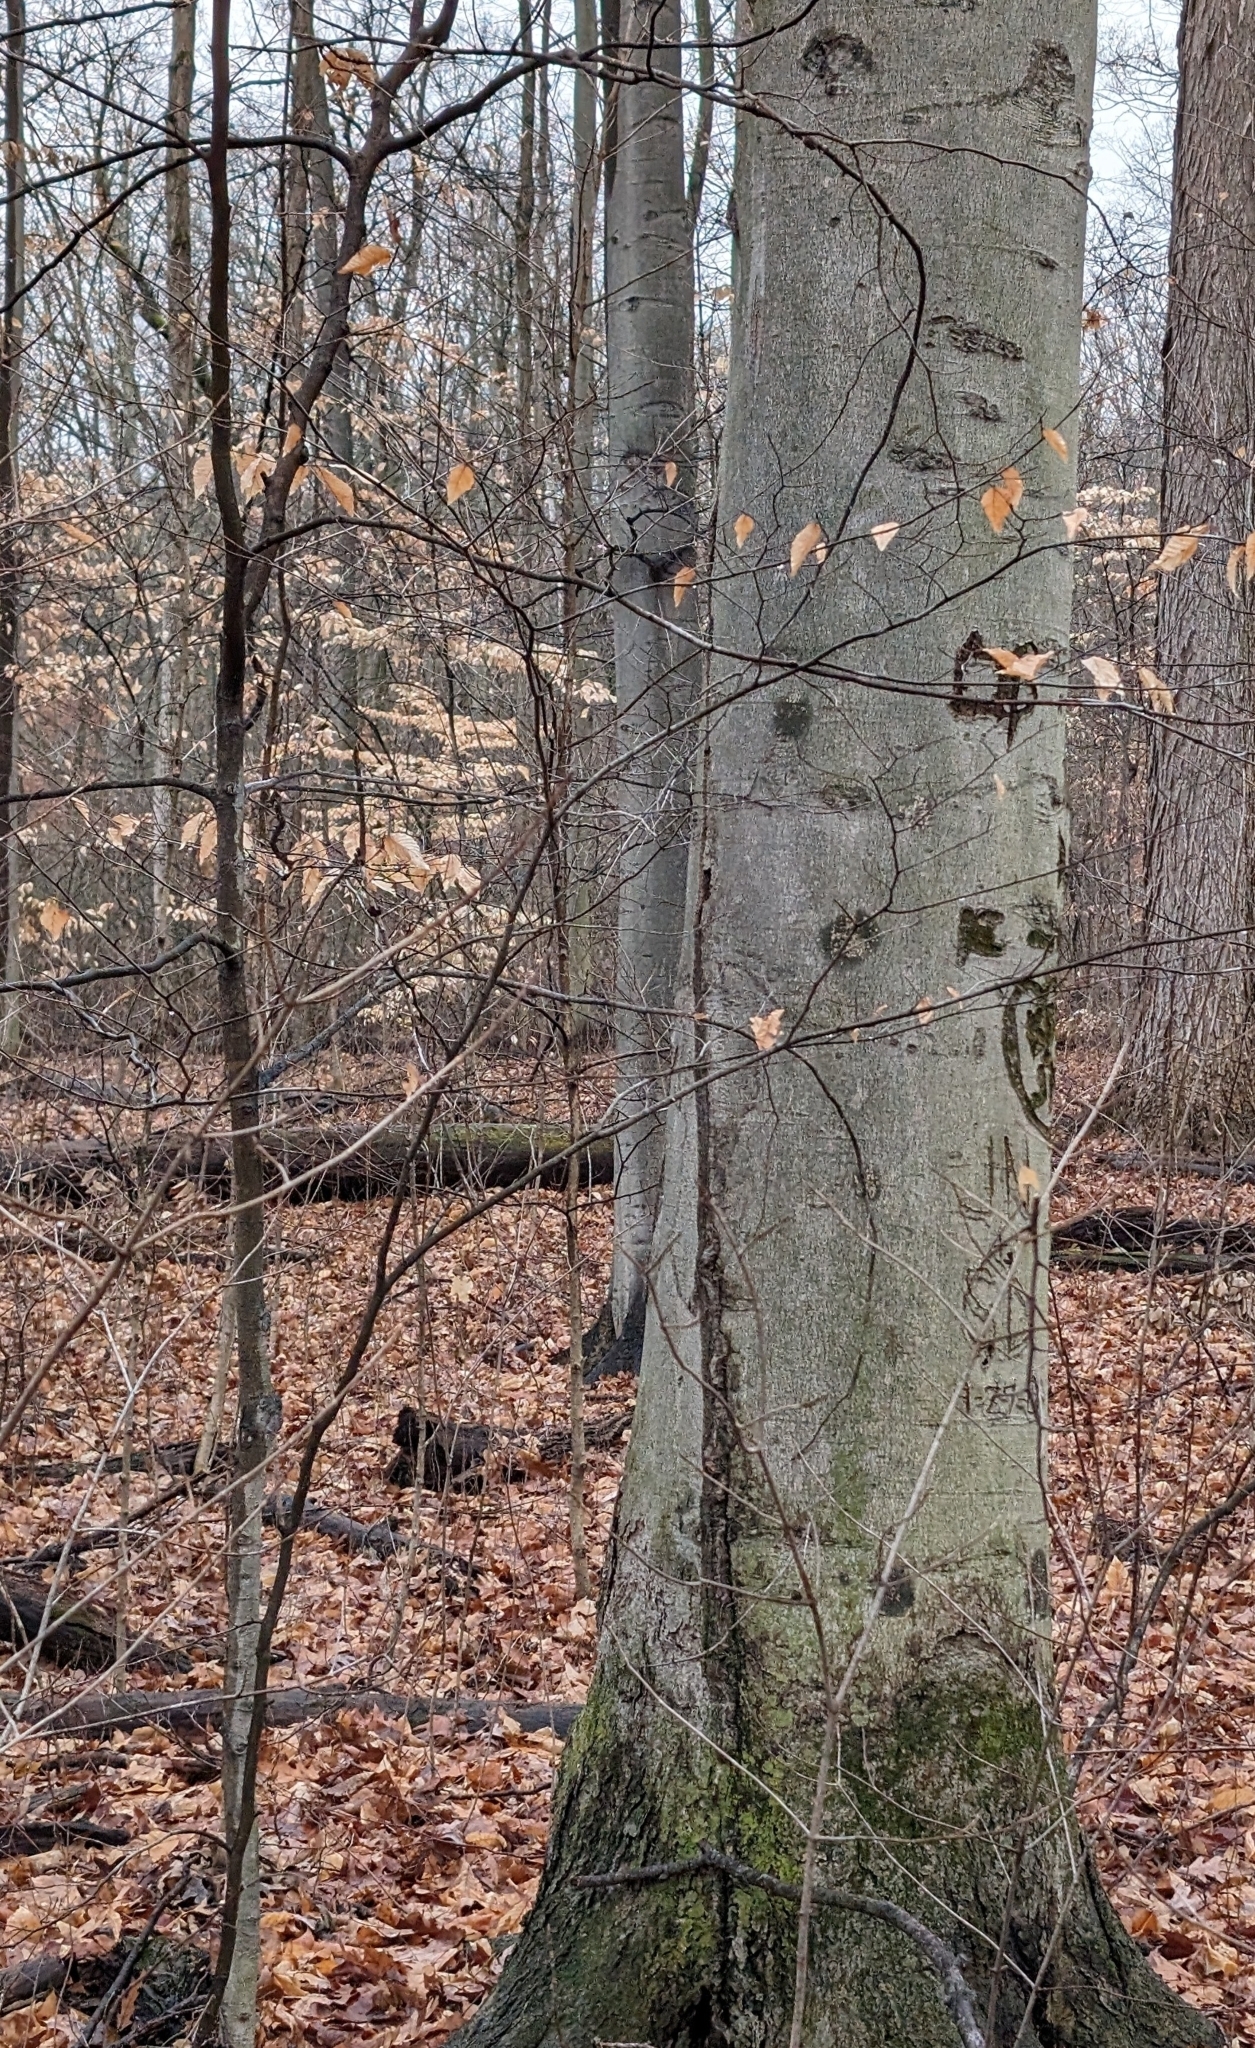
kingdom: Plantae
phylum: Tracheophyta
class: Magnoliopsida
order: Fagales
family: Fagaceae
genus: Fagus
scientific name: Fagus grandifolia
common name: American beech
